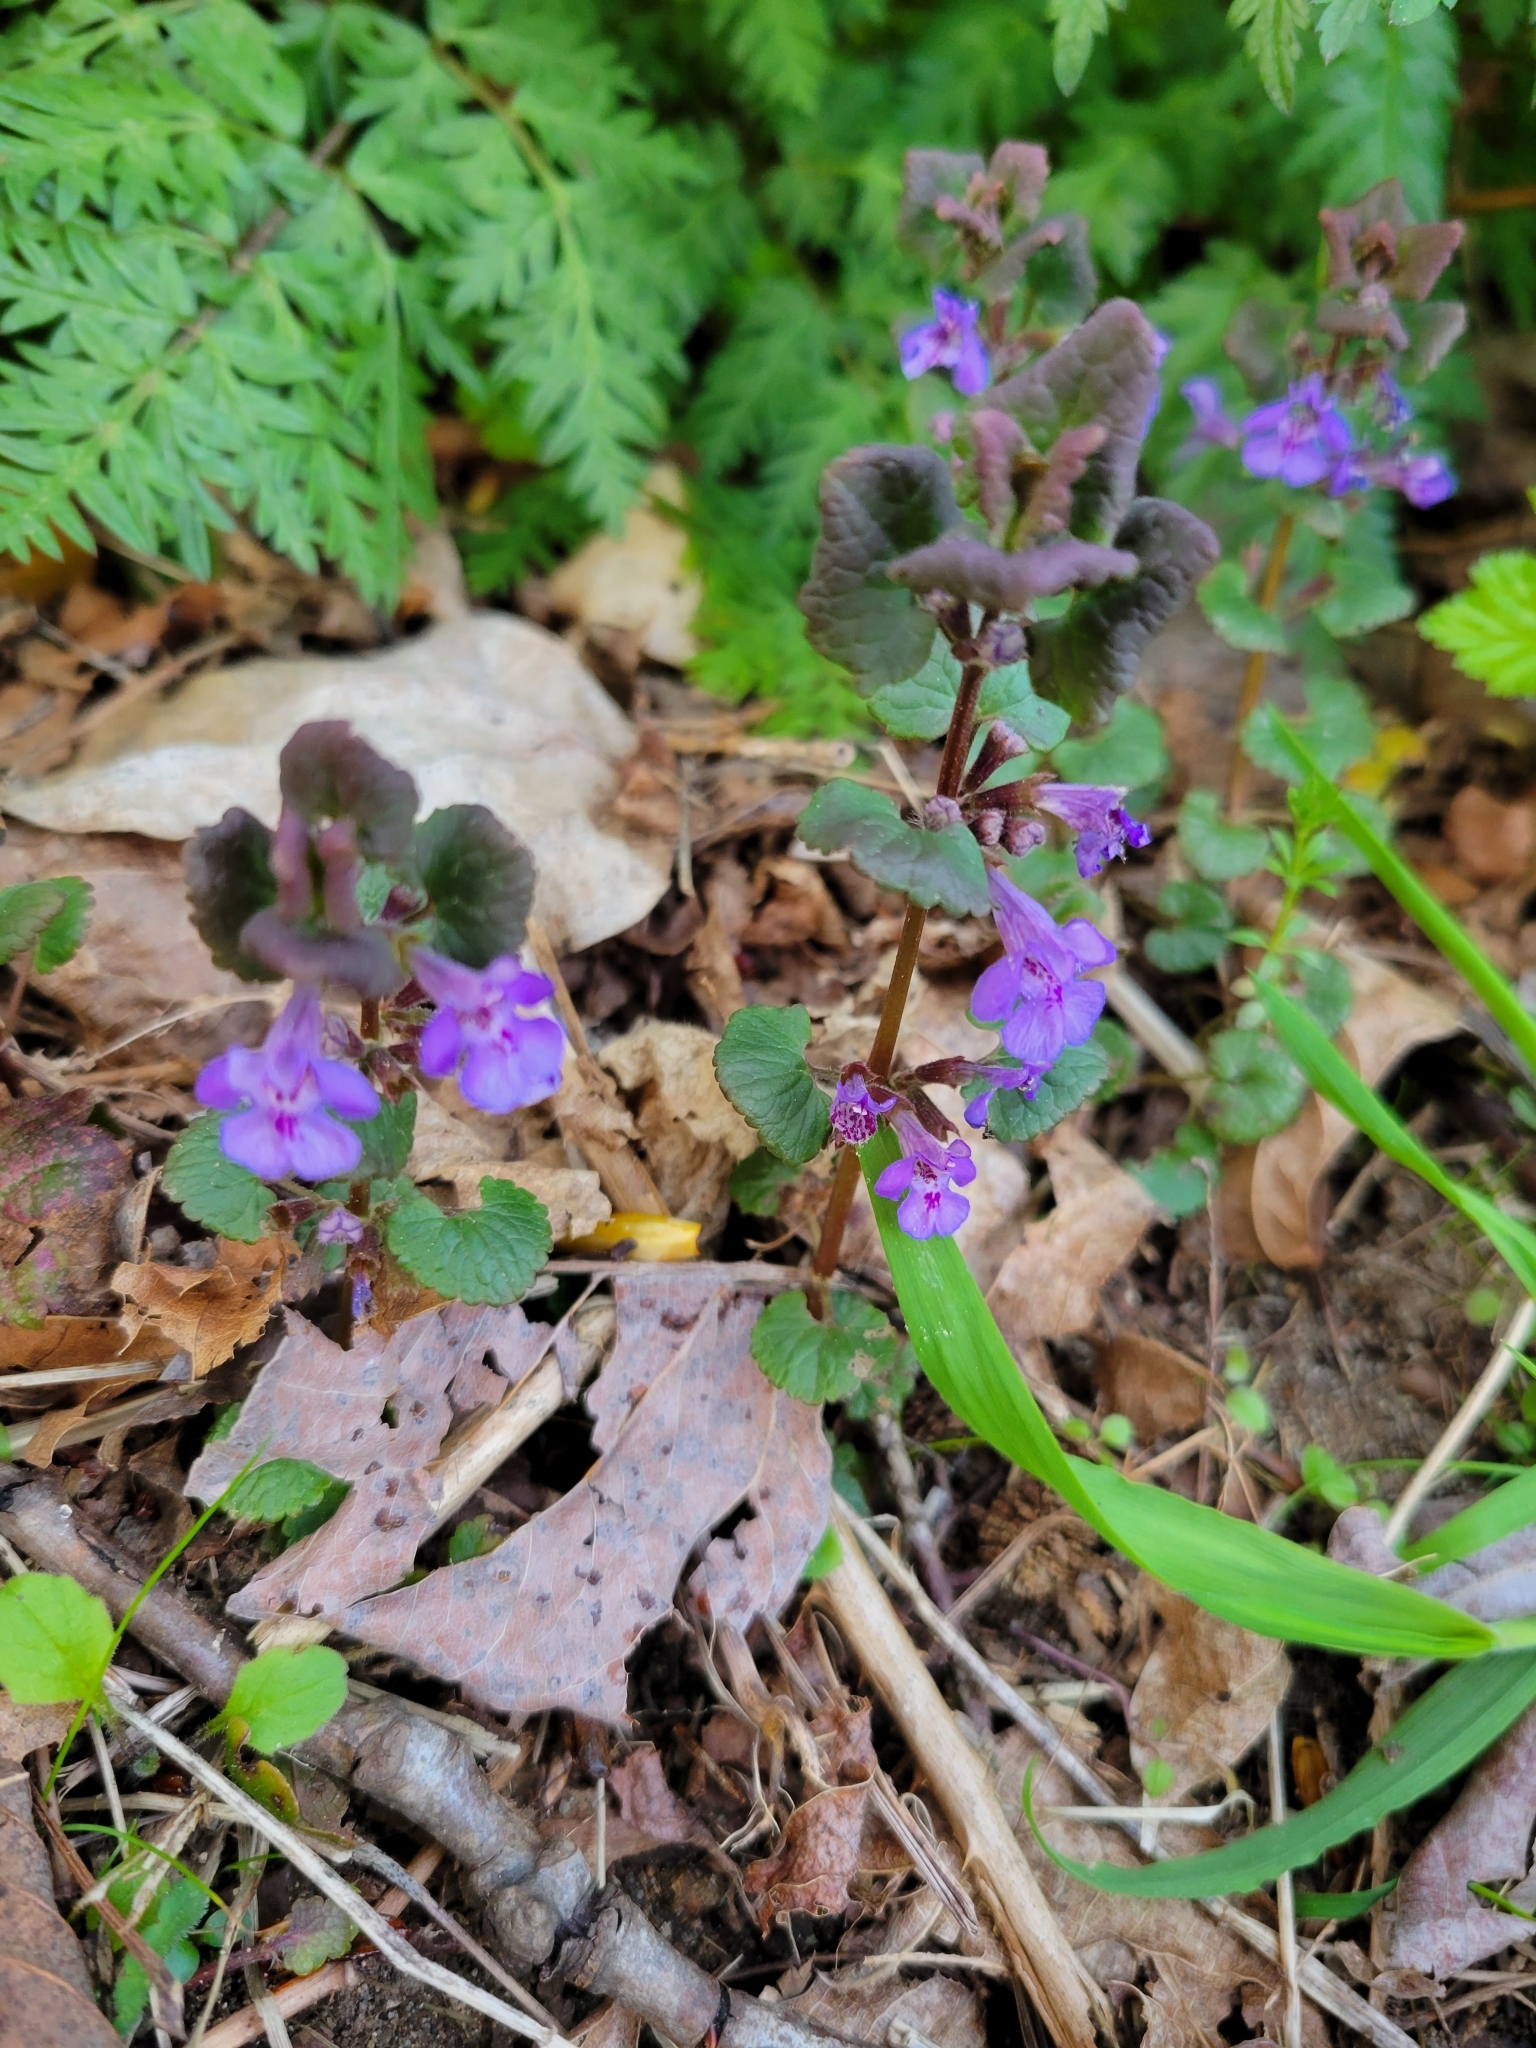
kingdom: Plantae
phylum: Tracheophyta
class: Magnoliopsida
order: Lamiales
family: Lamiaceae
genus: Glechoma
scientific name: Glechoma hederacea
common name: Ground ivy
